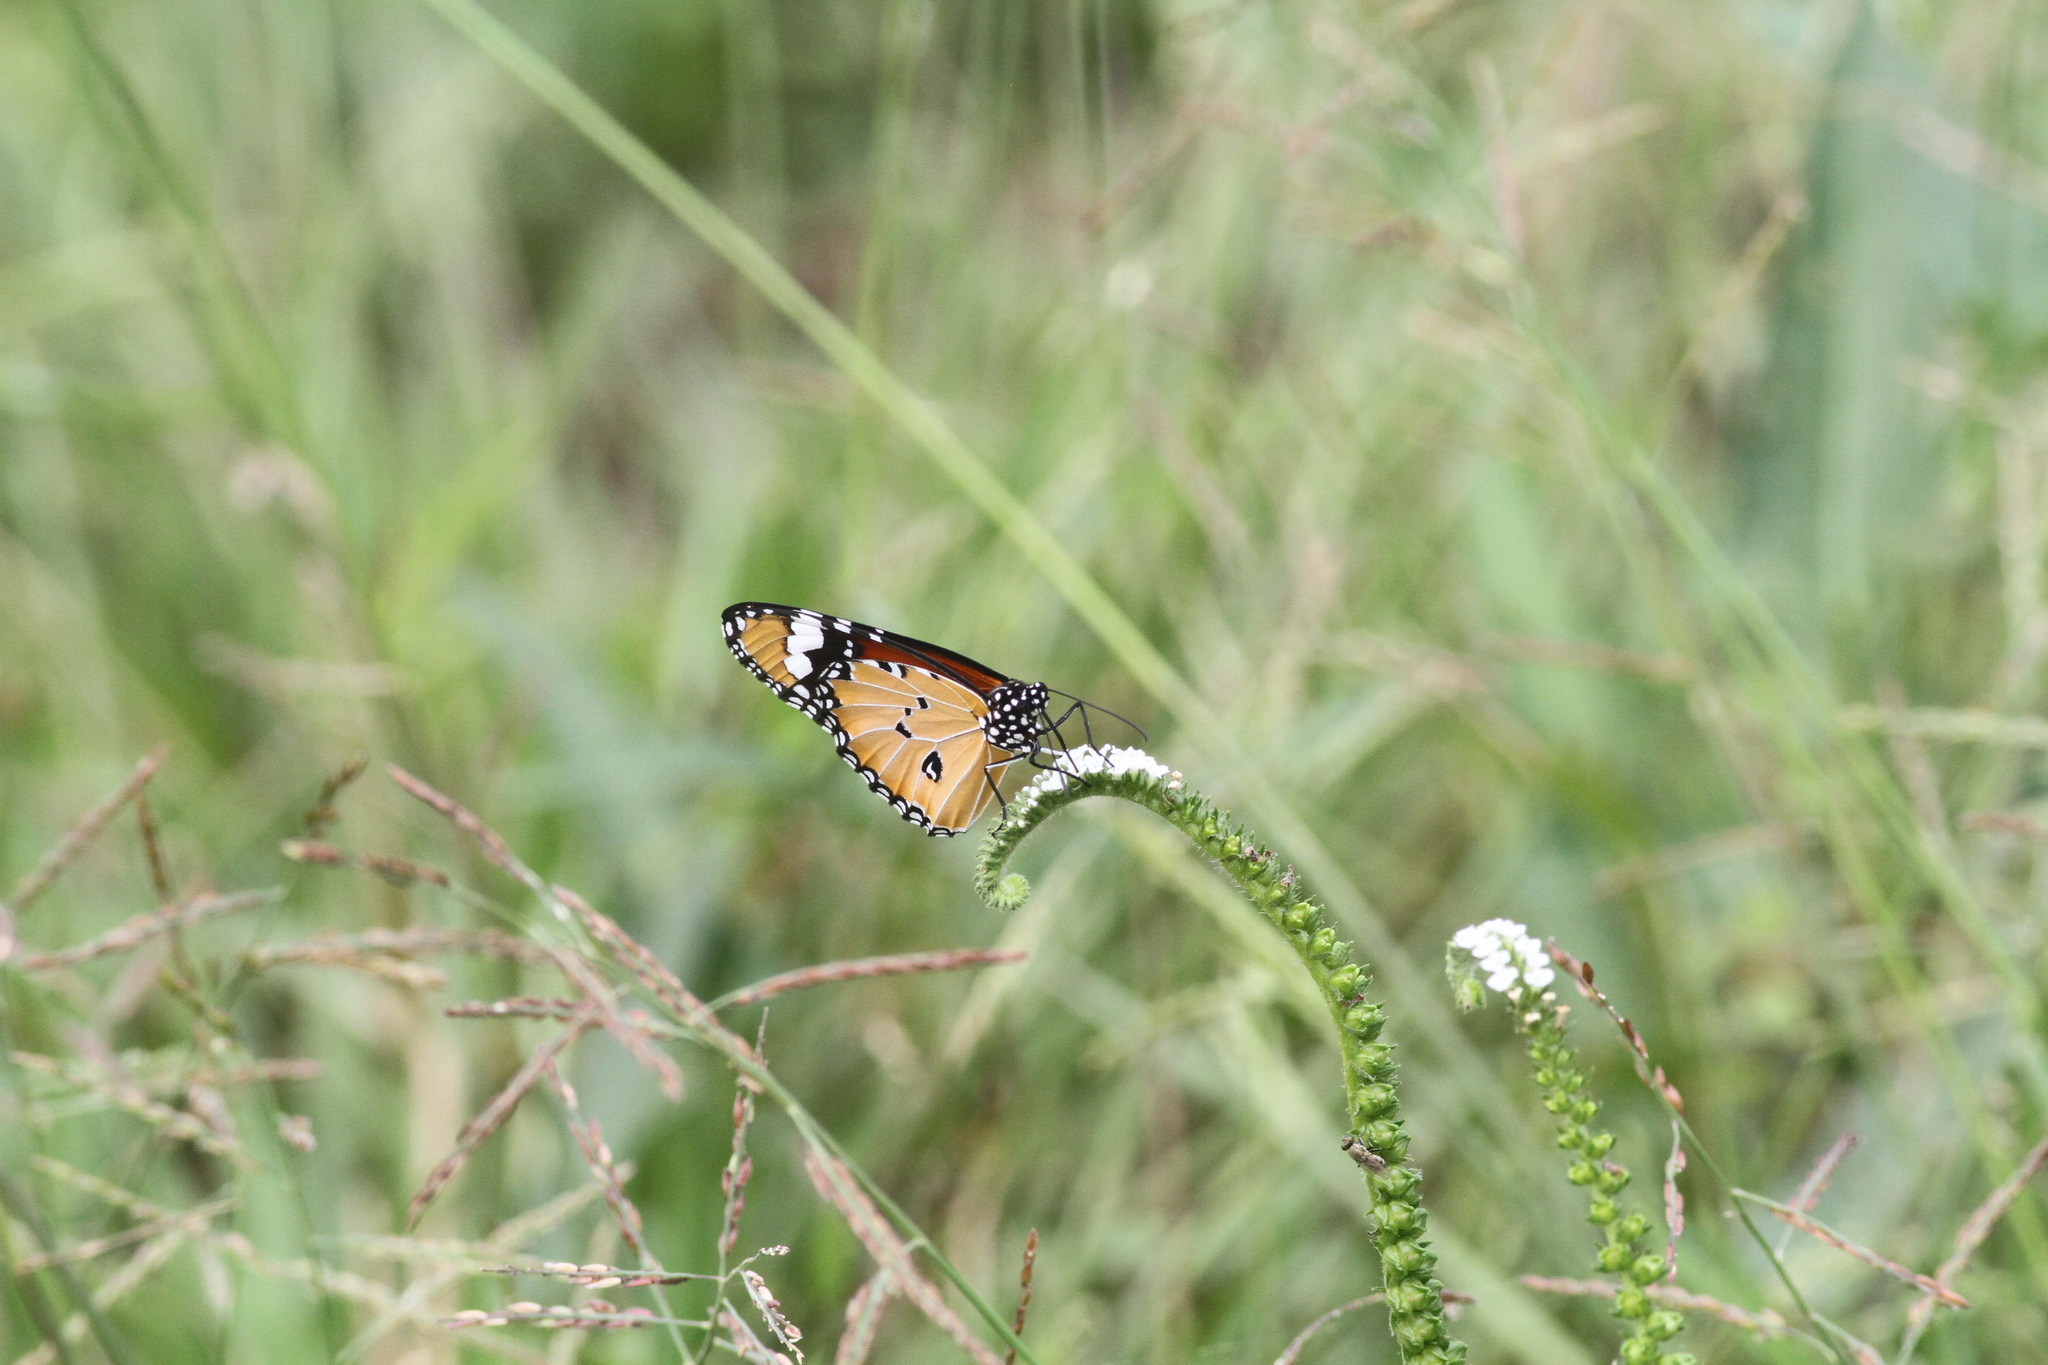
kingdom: Animalia
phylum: Arthropoda
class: Insecta
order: Lepidoptera
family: Nymphalidae
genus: Danaus
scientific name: Danaus chrysippus
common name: Plain tiger
